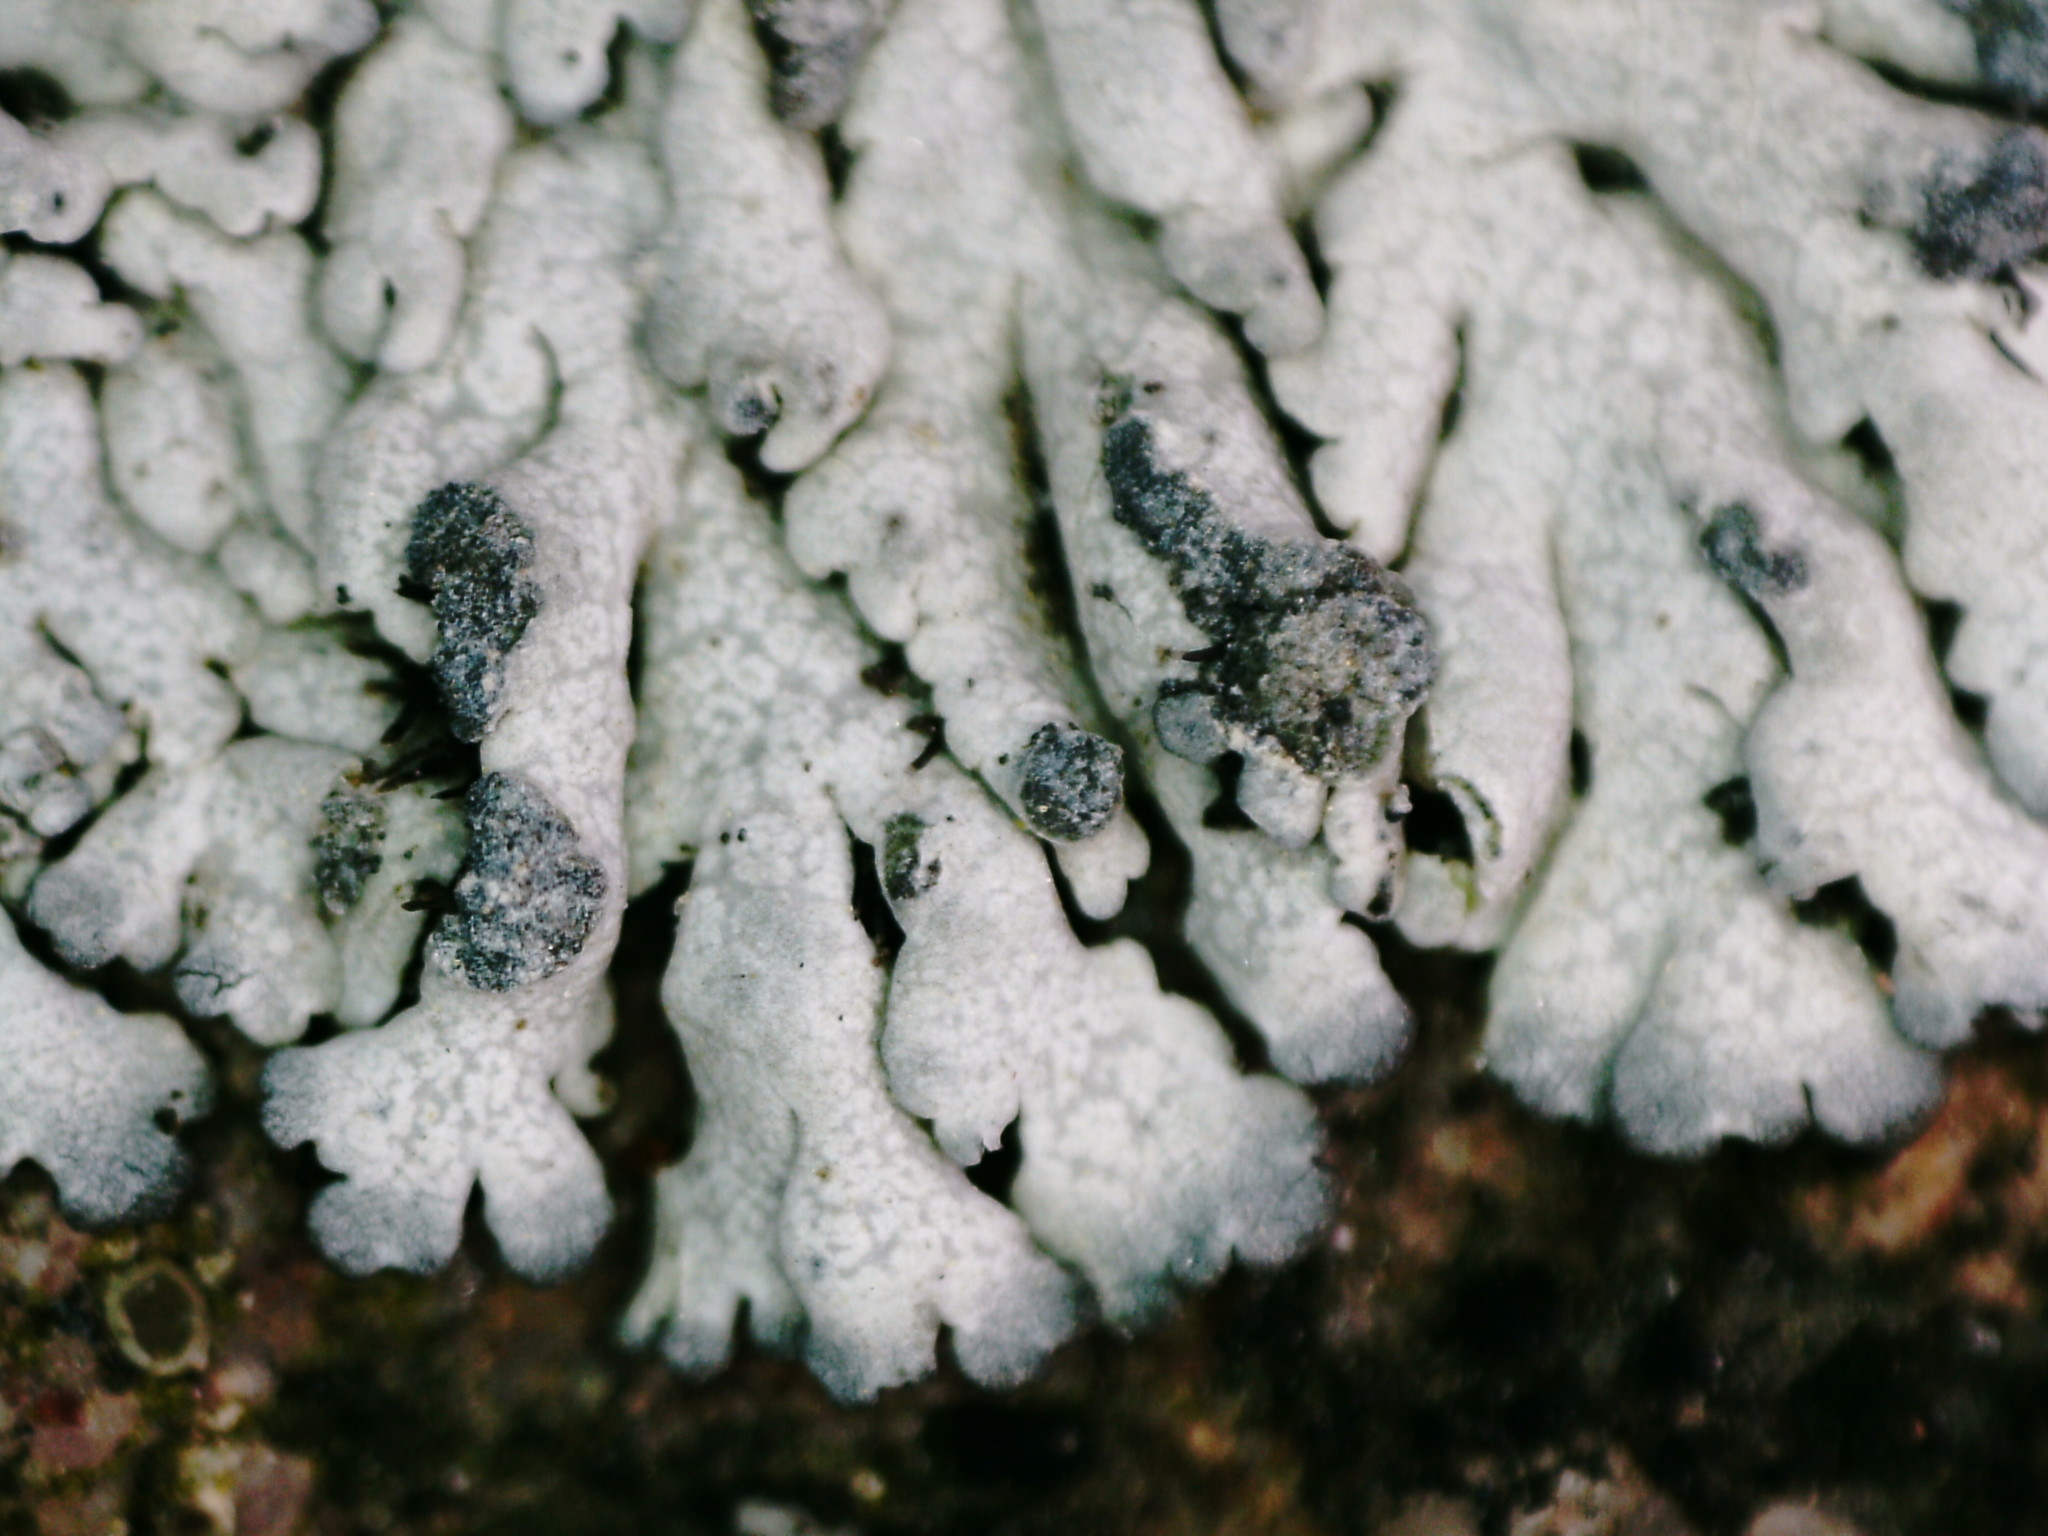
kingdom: Fungi
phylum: Ascomycota
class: Lecanoromycetes
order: Caliciales
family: Physciaceae
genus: Physcia
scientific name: Physcia caesia
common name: Blue-gray rosette lichen
